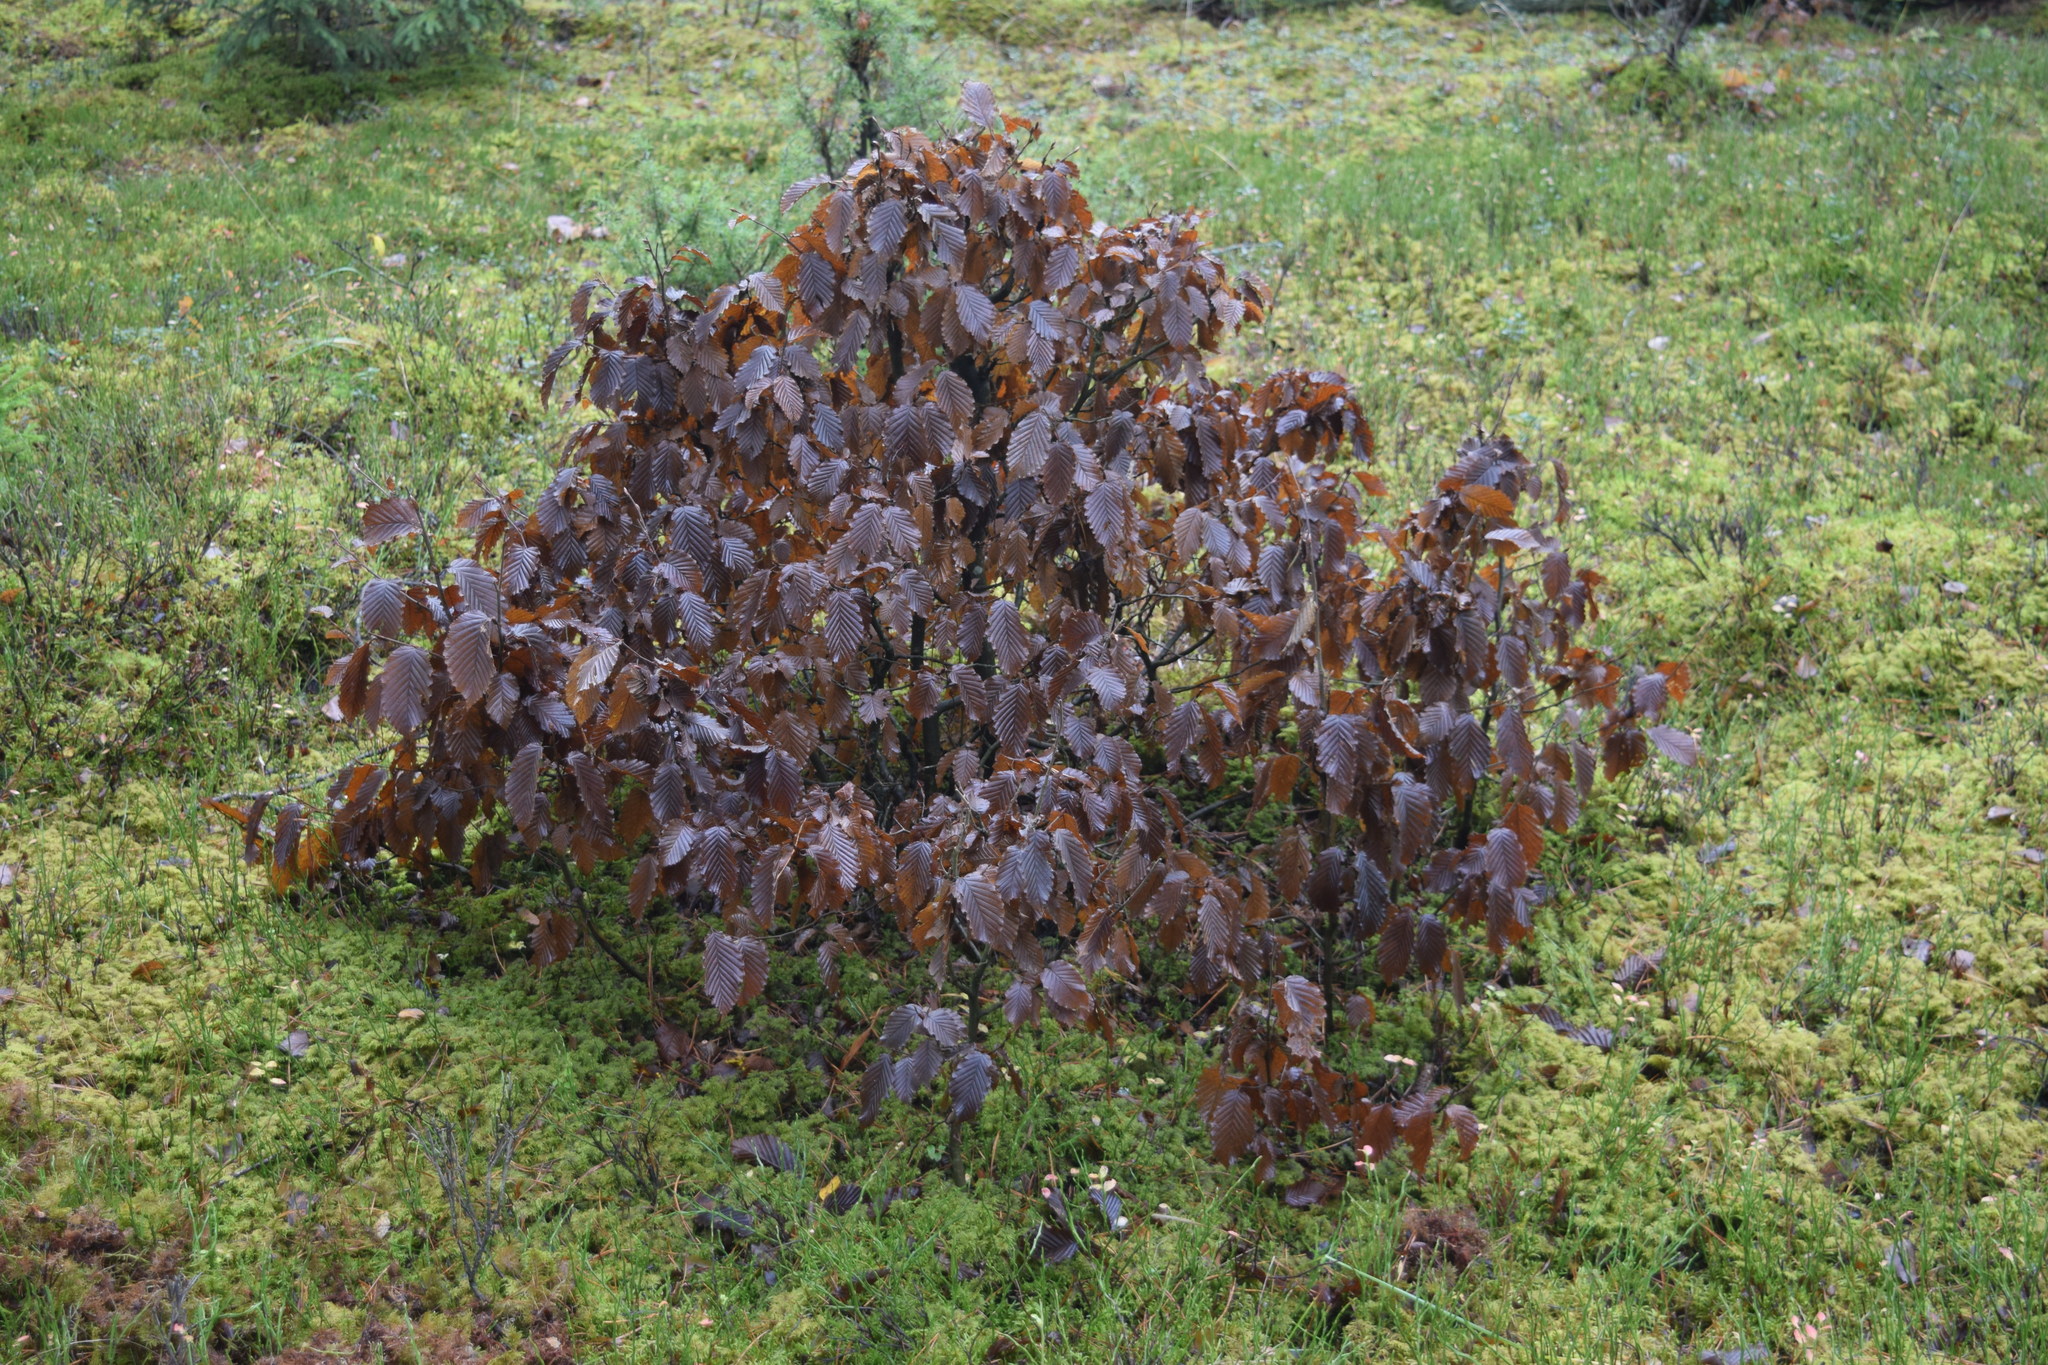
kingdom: Plantae
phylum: Tracheophyta
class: Magnoliopsida
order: Fagales
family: Betulaceae
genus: Carpinus
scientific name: Carpinus betulus
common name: Hornbeam
